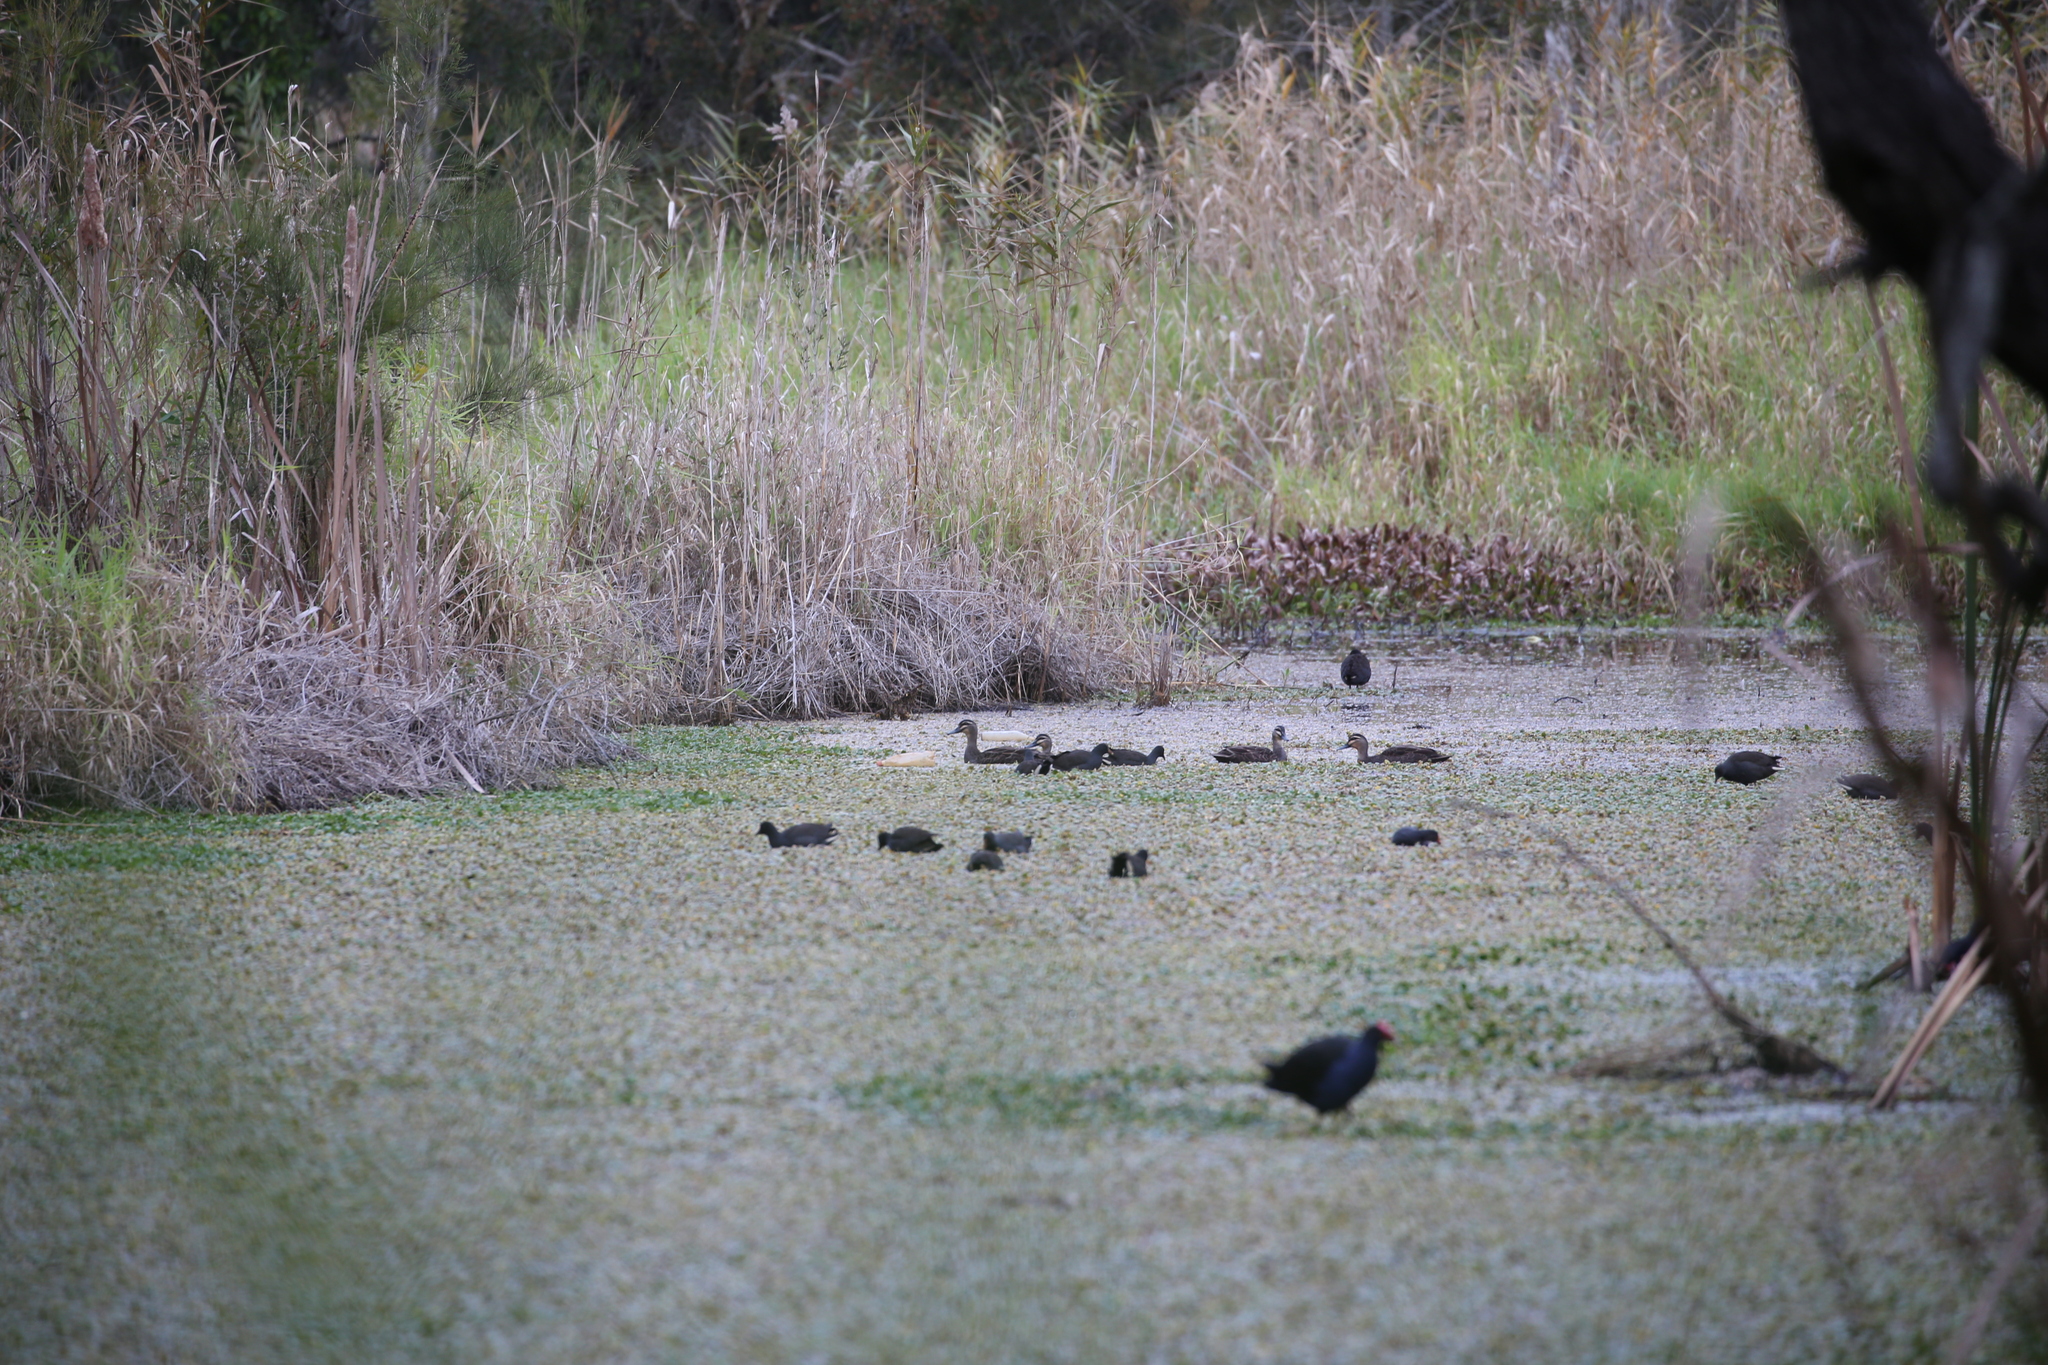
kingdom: Animalia
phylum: Chordata
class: Aves
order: Anseriformes
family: Anatidae
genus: Anas
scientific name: Anas superciliosa
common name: Pacific black duck
